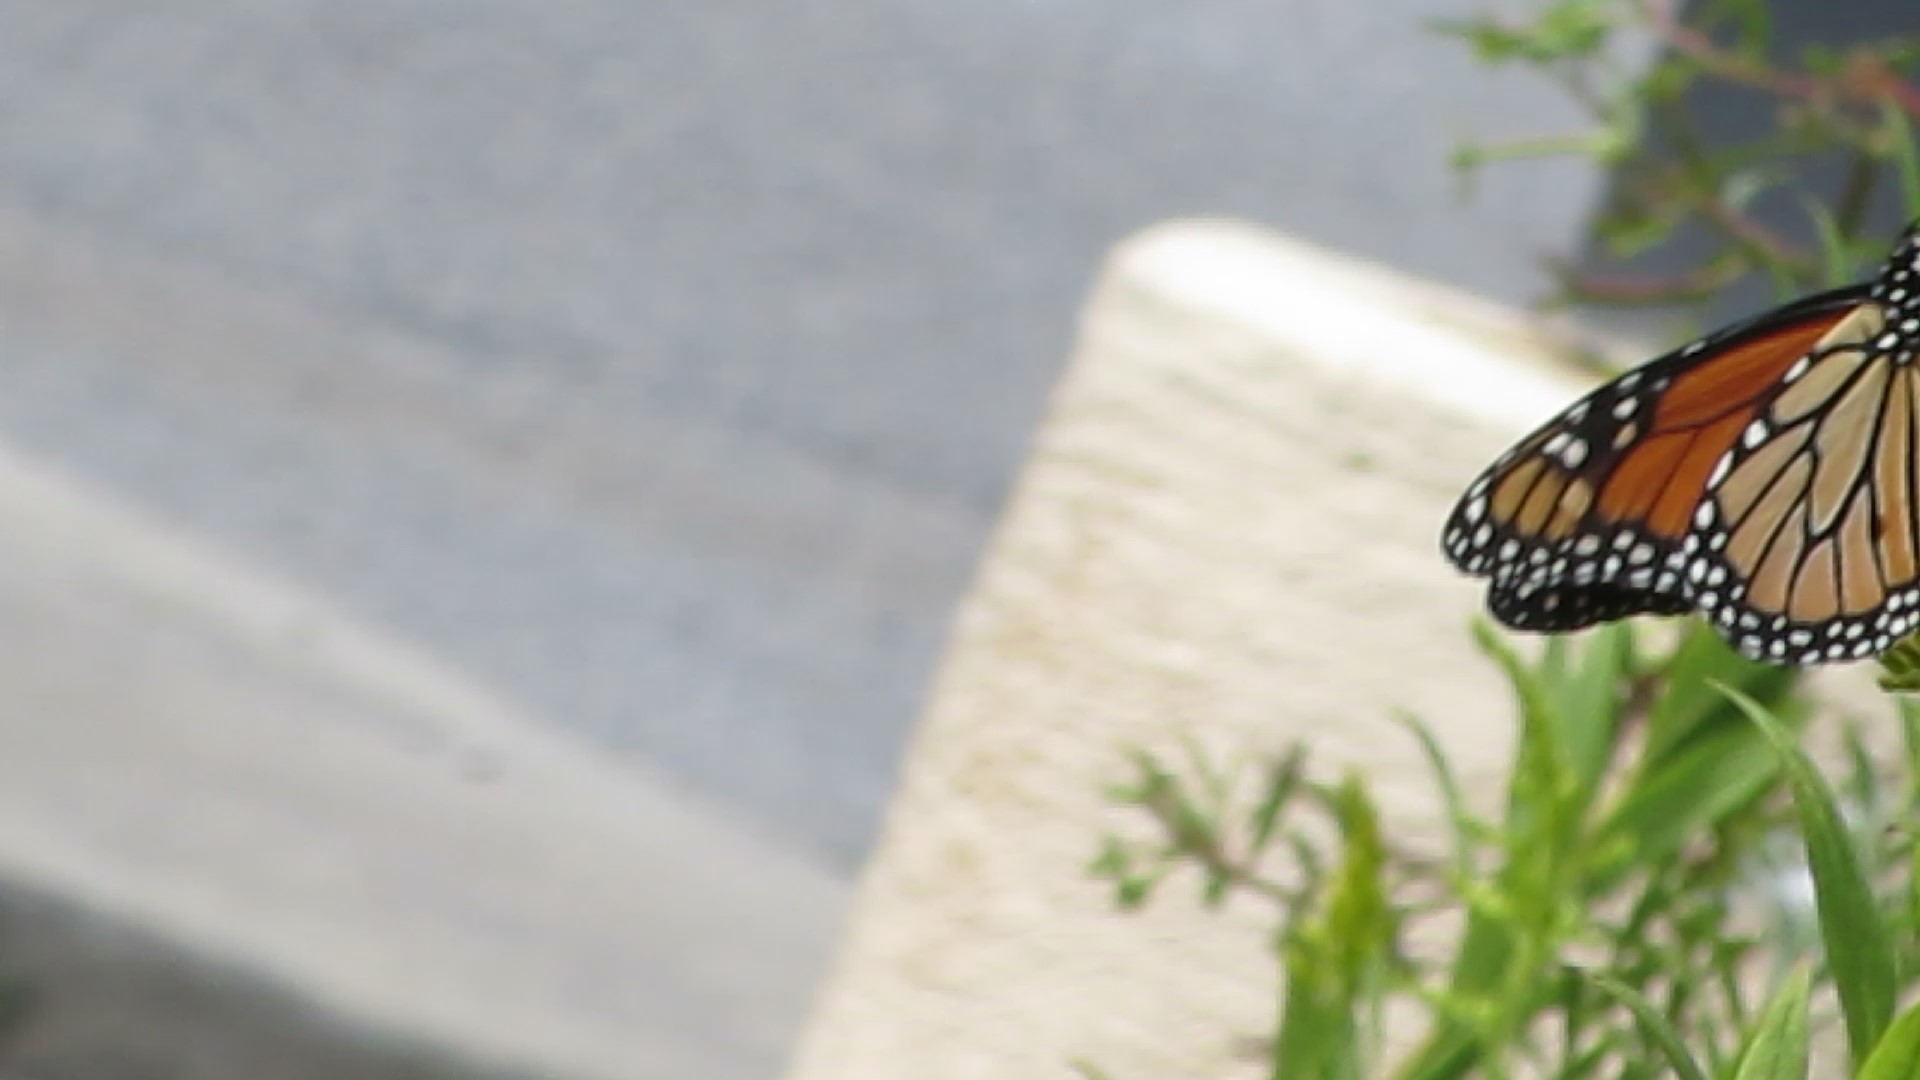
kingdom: Animalia
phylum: Arthropoda
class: Insecta
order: Lepidoptera
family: Nymphalidae
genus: Danaus
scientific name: Danaus plexippus
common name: Monarch
